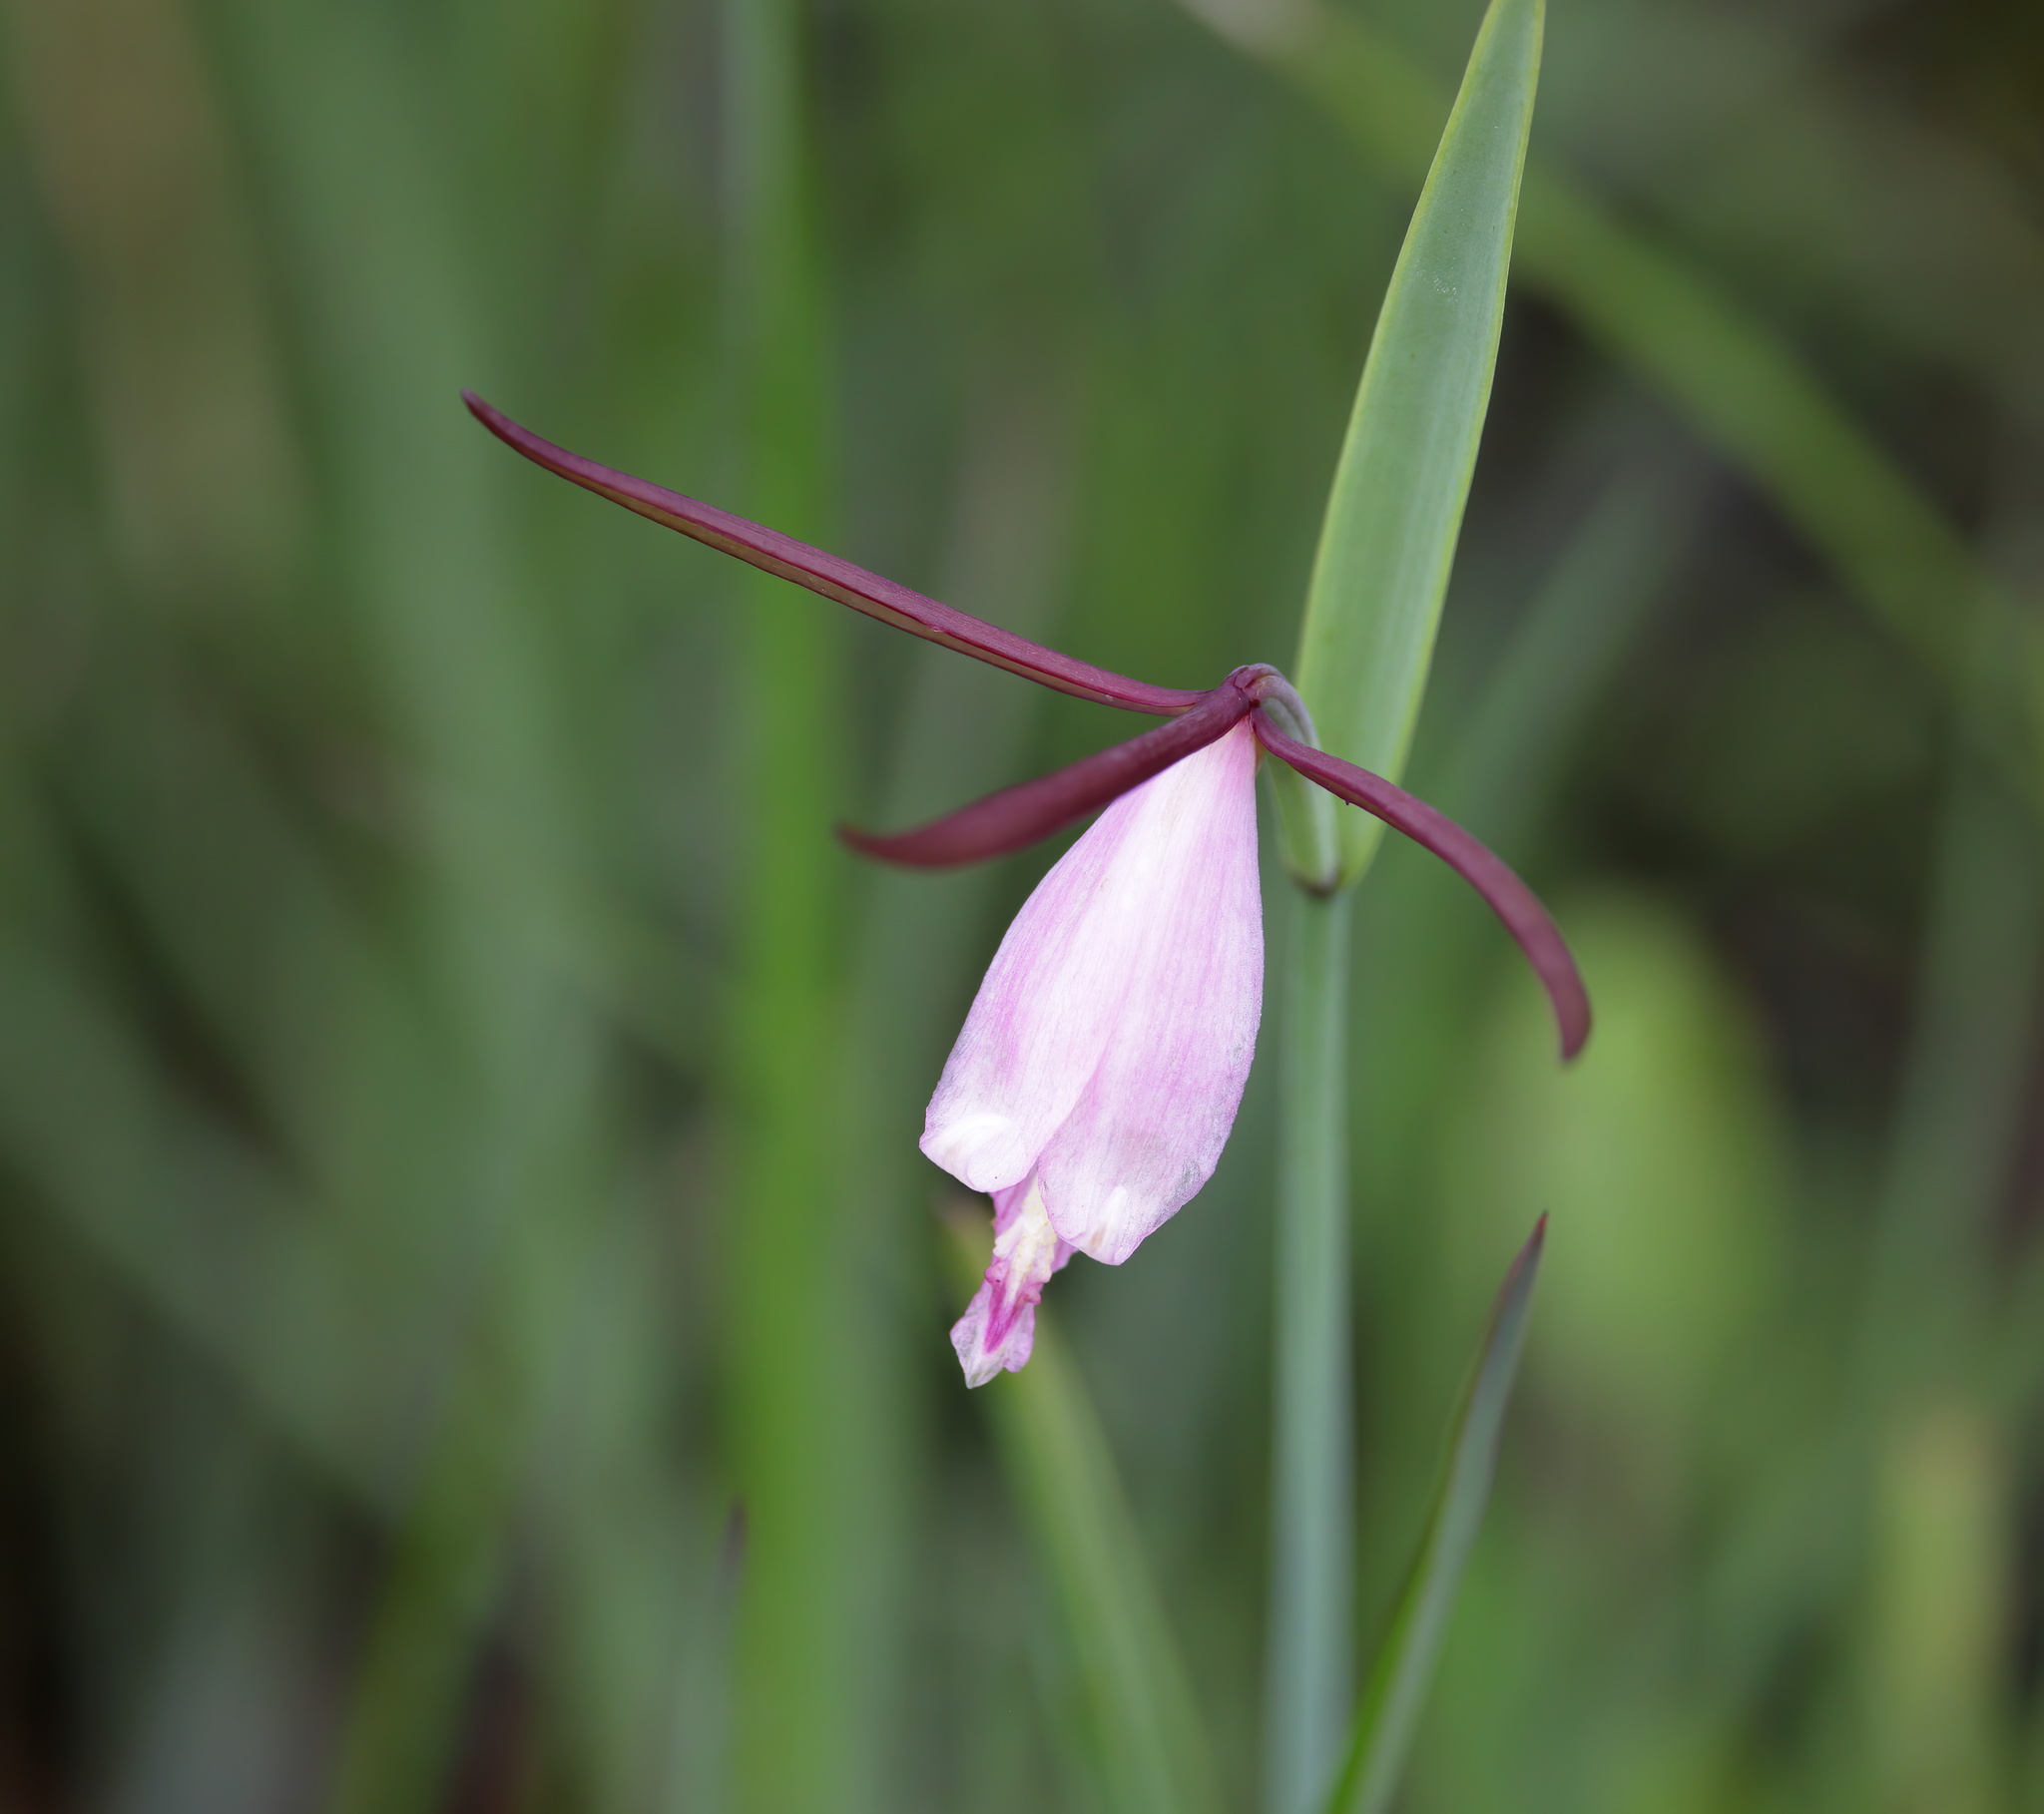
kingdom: Plantae
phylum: Tracheophyta
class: Liliopsida
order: Asparagales
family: Orchidaceae
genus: Cleistesiopsis
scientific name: Cleistesiopsis divaricata
